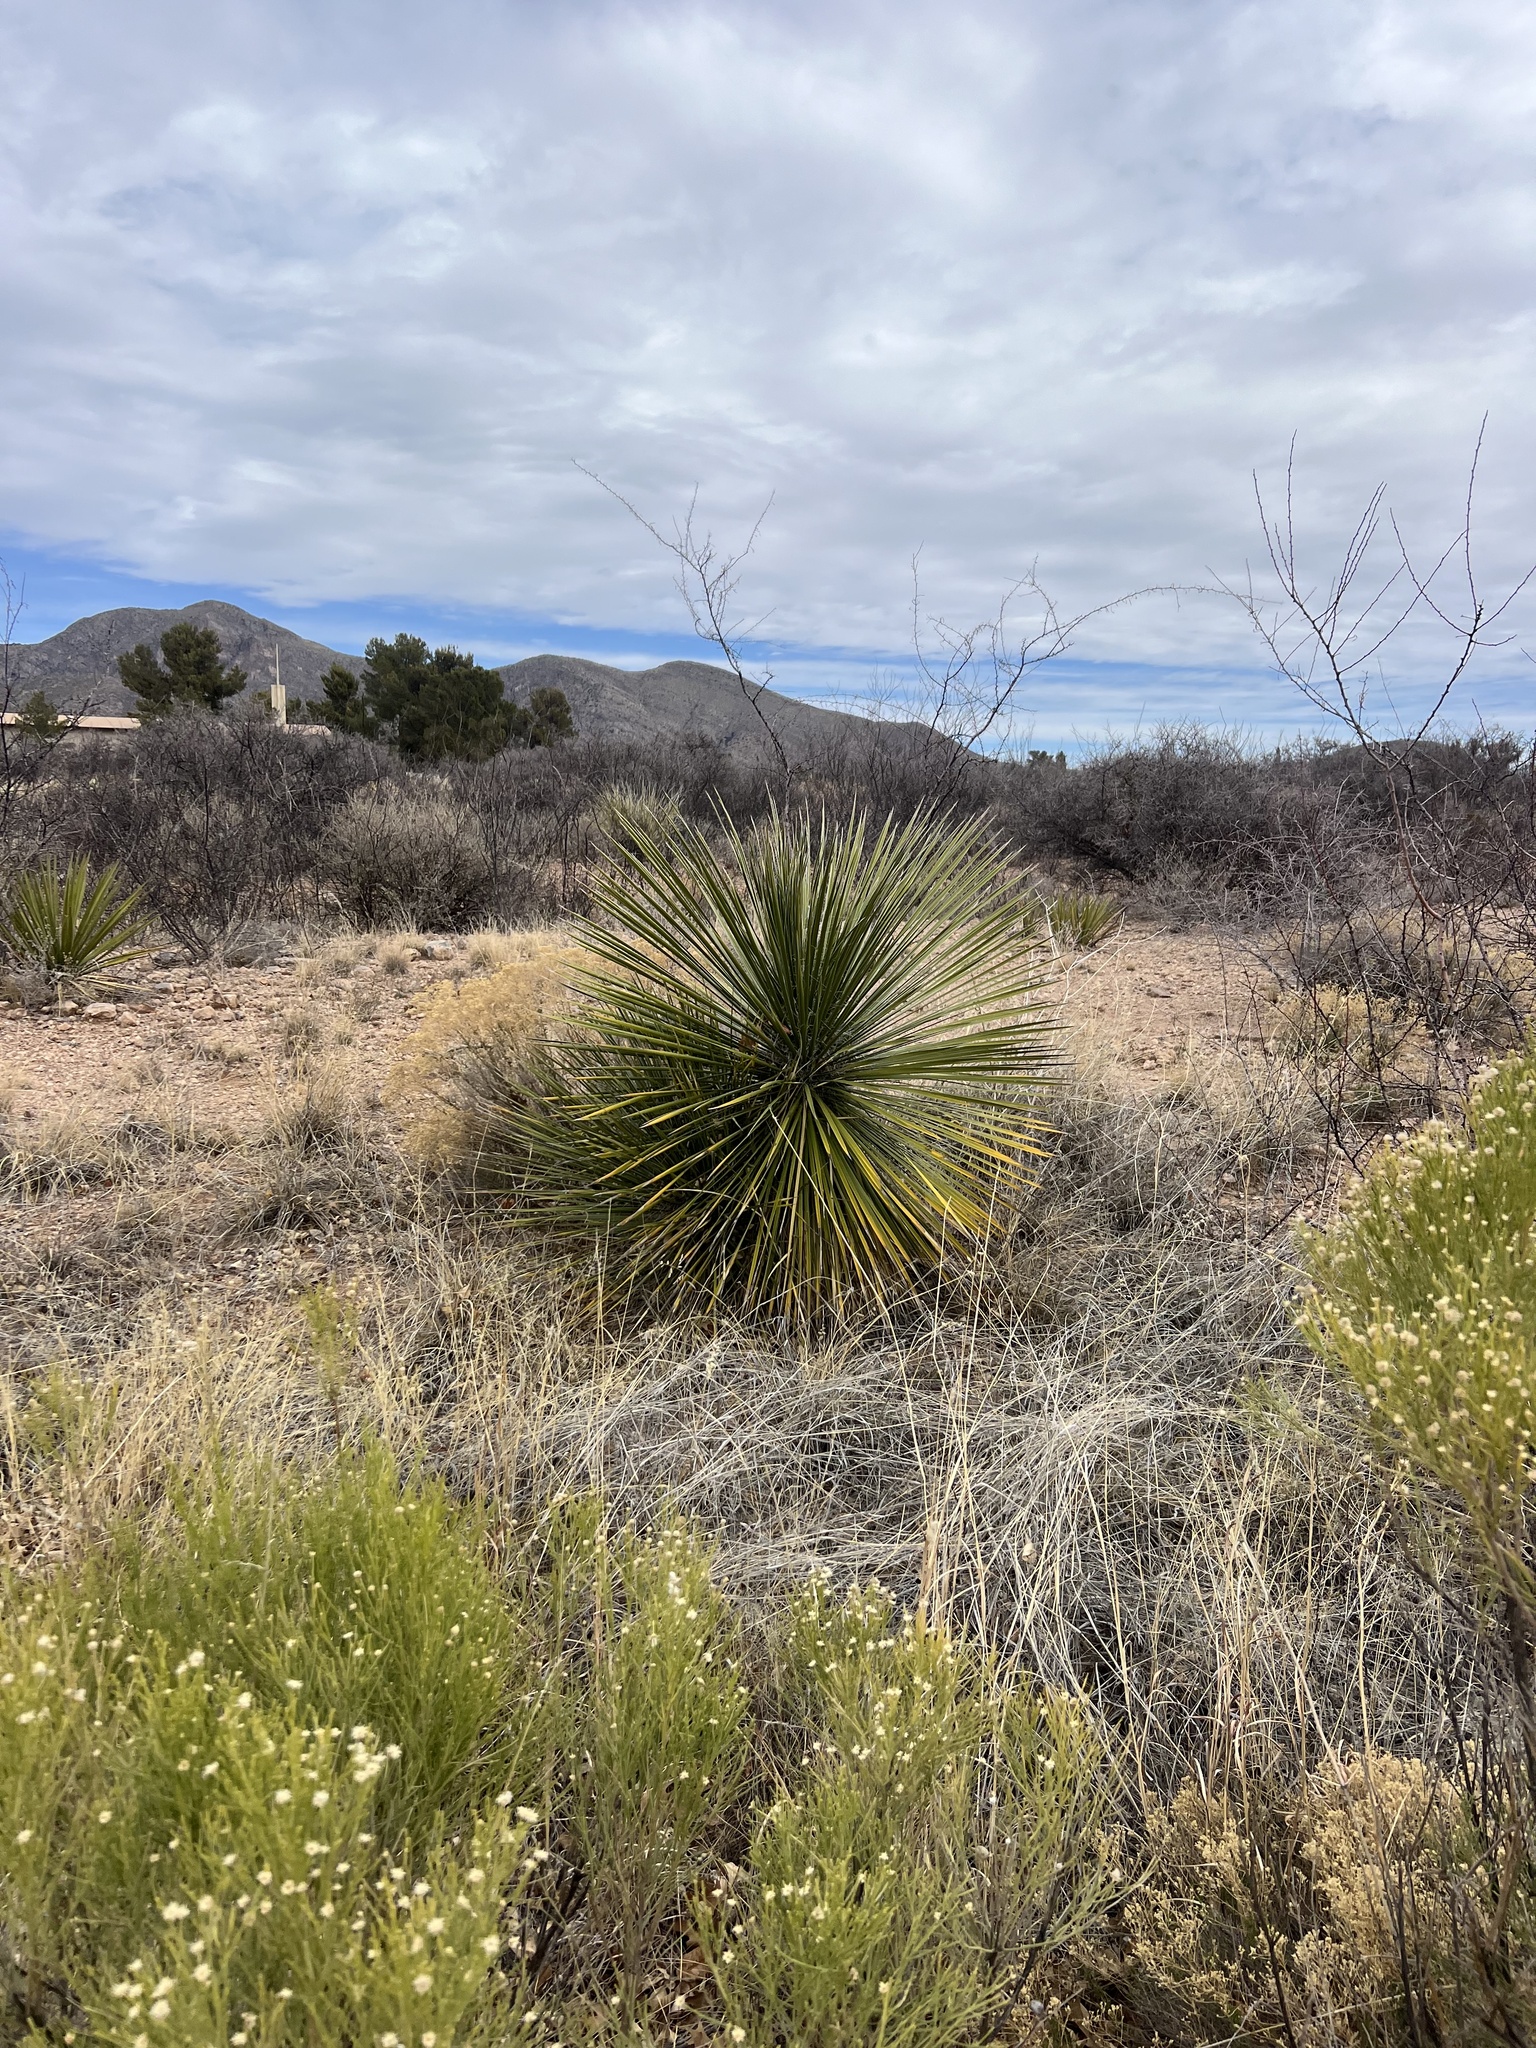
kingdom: Plantae
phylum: Tracheophyta
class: Liliopsida
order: Asparagales
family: Asparagaceae
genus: Yucca
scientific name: Yucca elata
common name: Palmella
